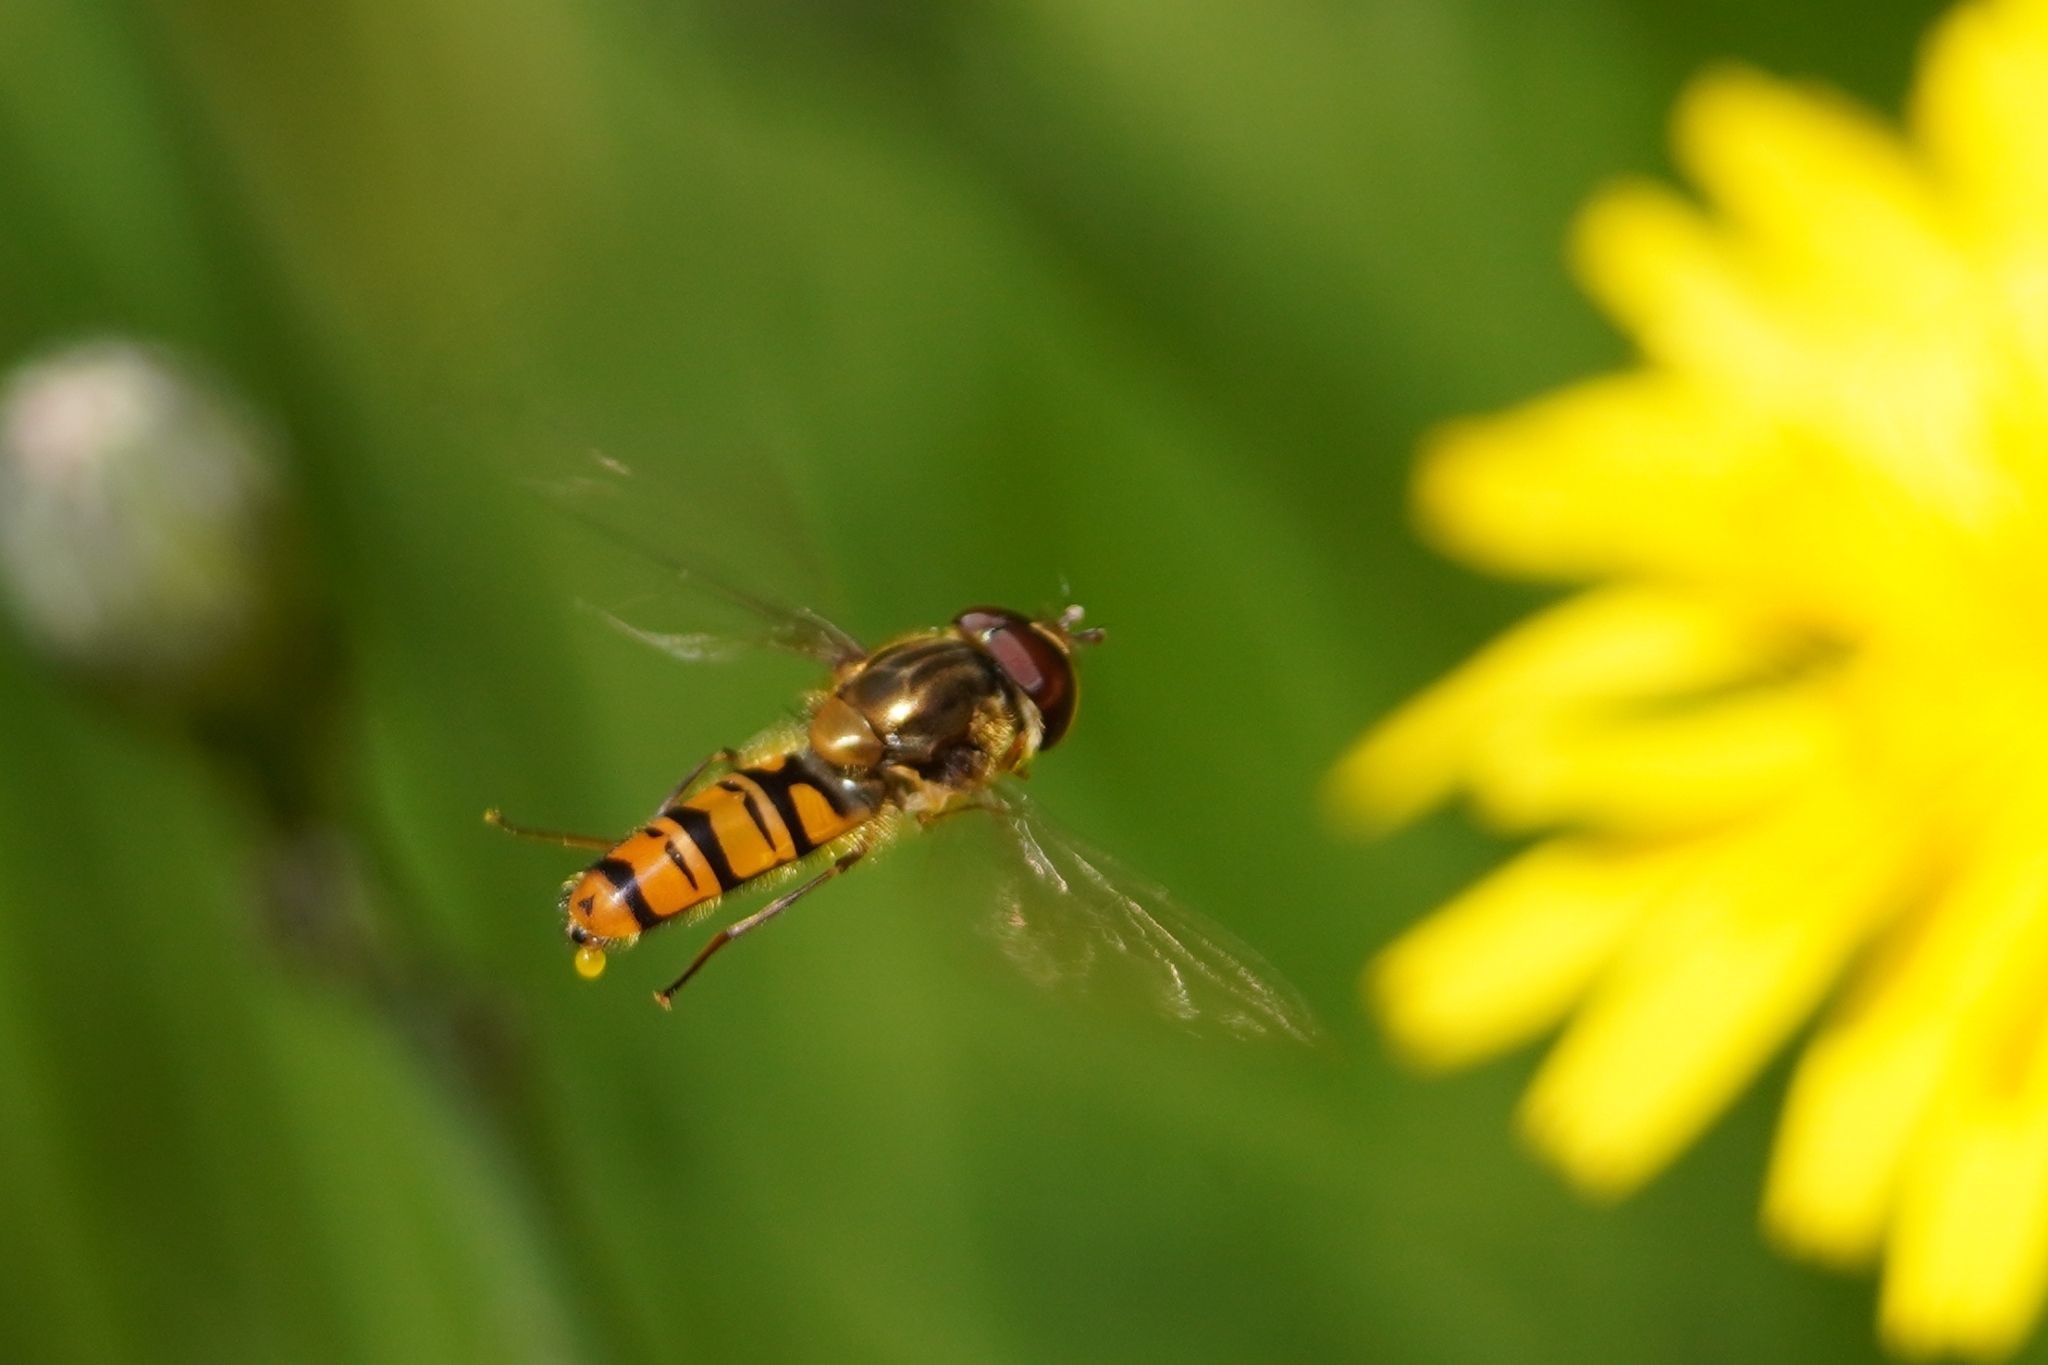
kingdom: Animalia
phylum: Arthropoda
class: Insecta
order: Diptera
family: Syrphidae
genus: Episyrphus
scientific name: Episyrphus balteatus
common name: Marmalade hoverfly
